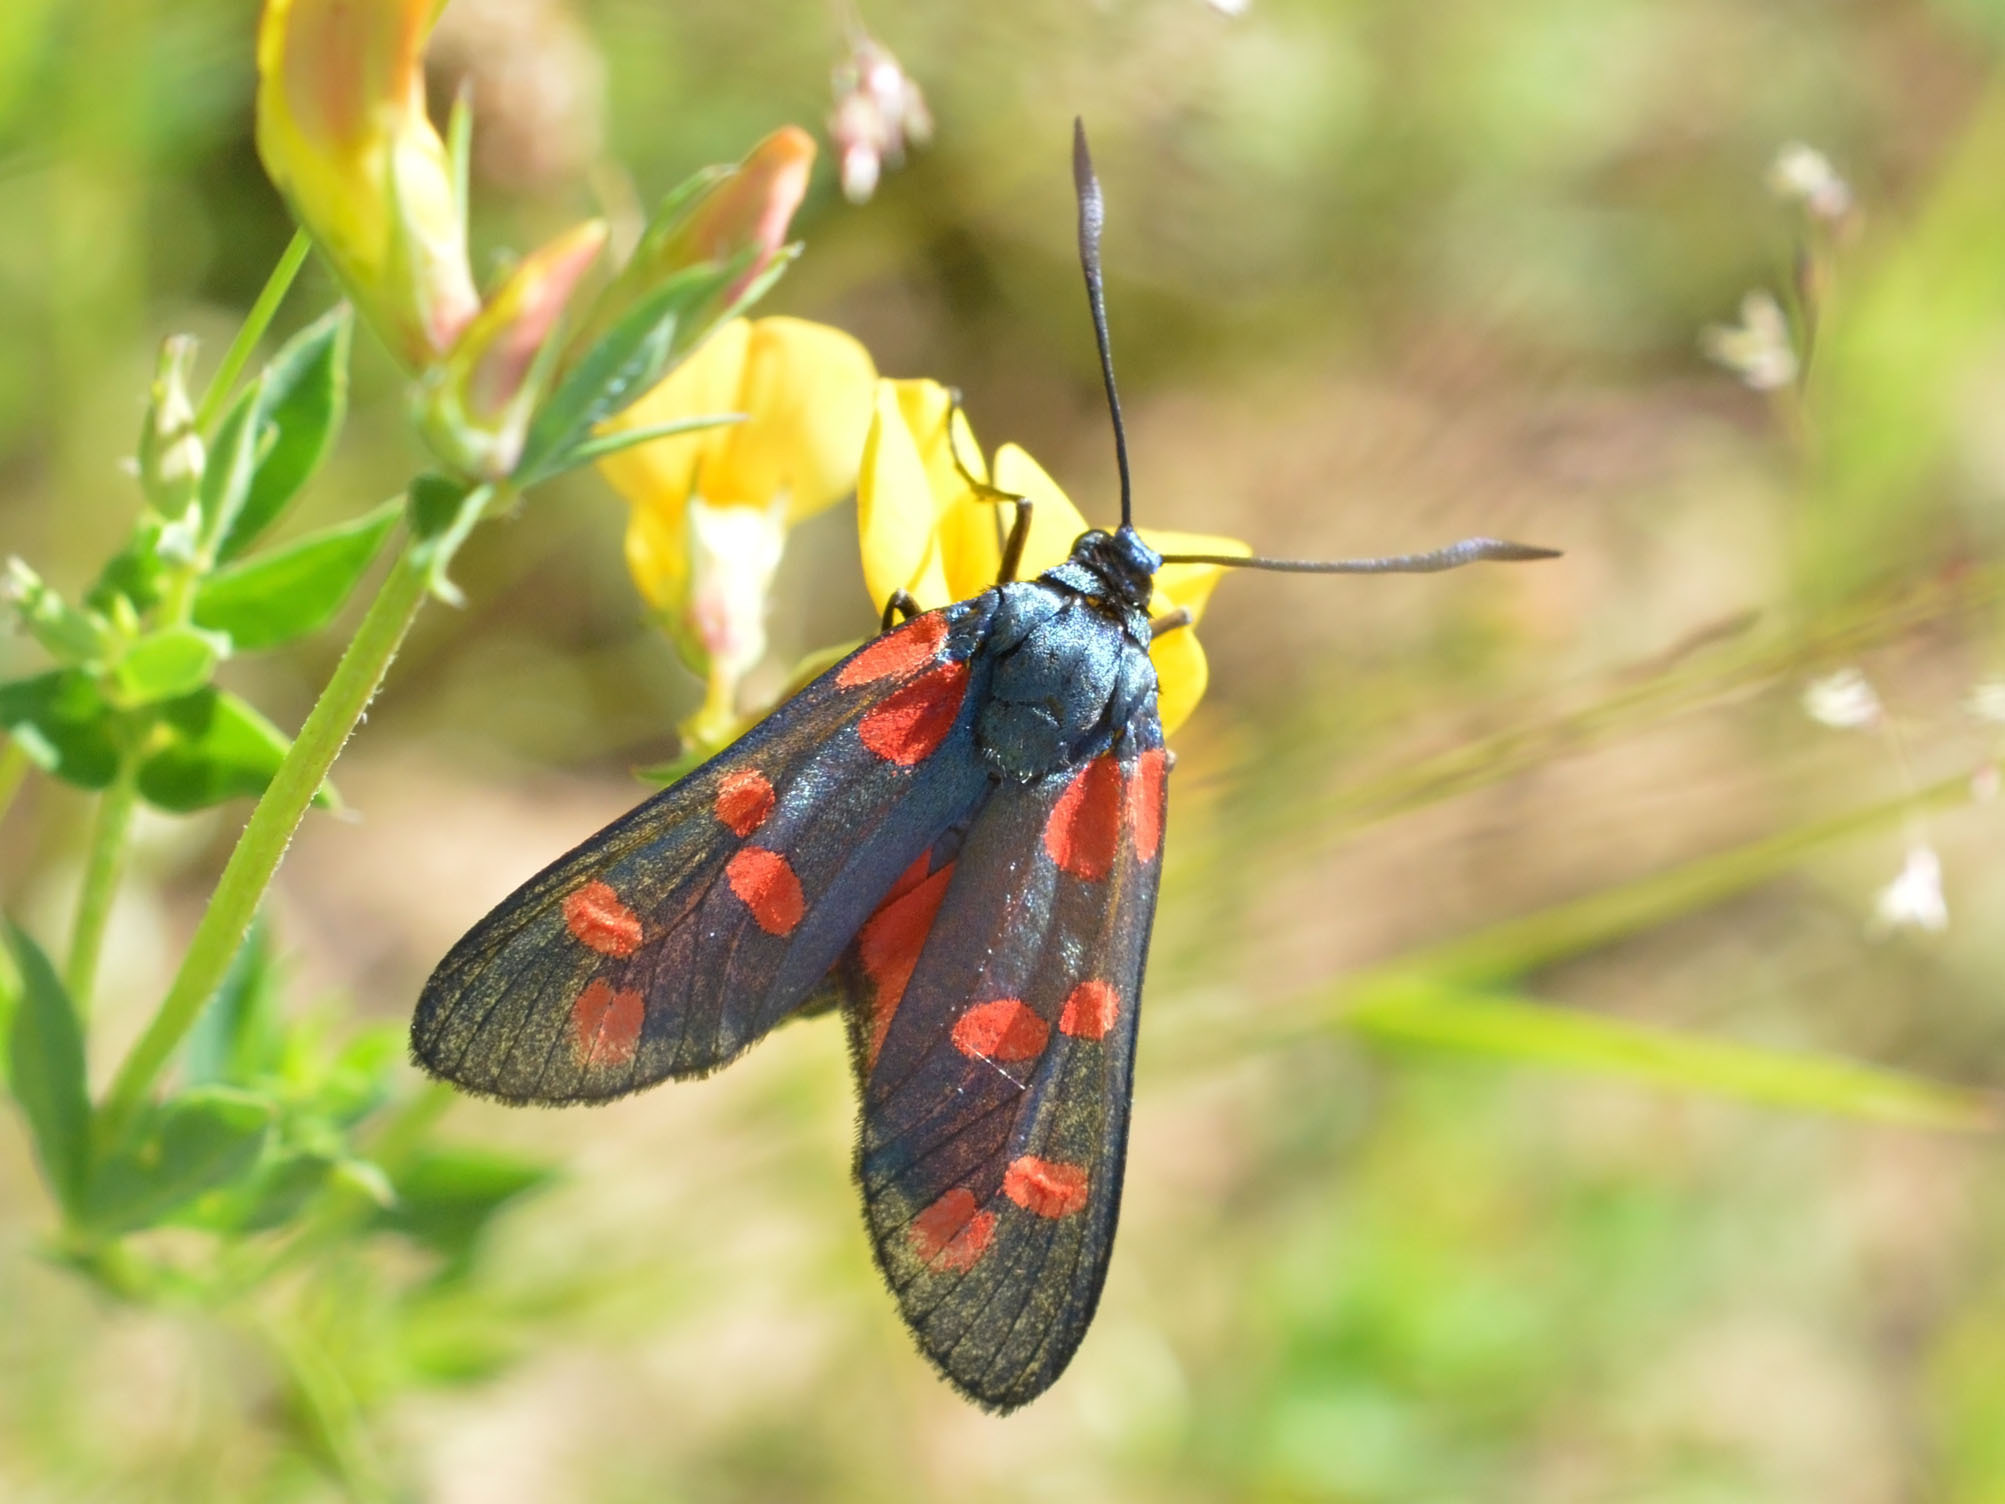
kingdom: Animalia
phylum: Arthropoda
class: Insecta
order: Lepidoptera
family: Zygaenidae
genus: Zygaena
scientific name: Zygaena filipendulae
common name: Six-spot burnet
